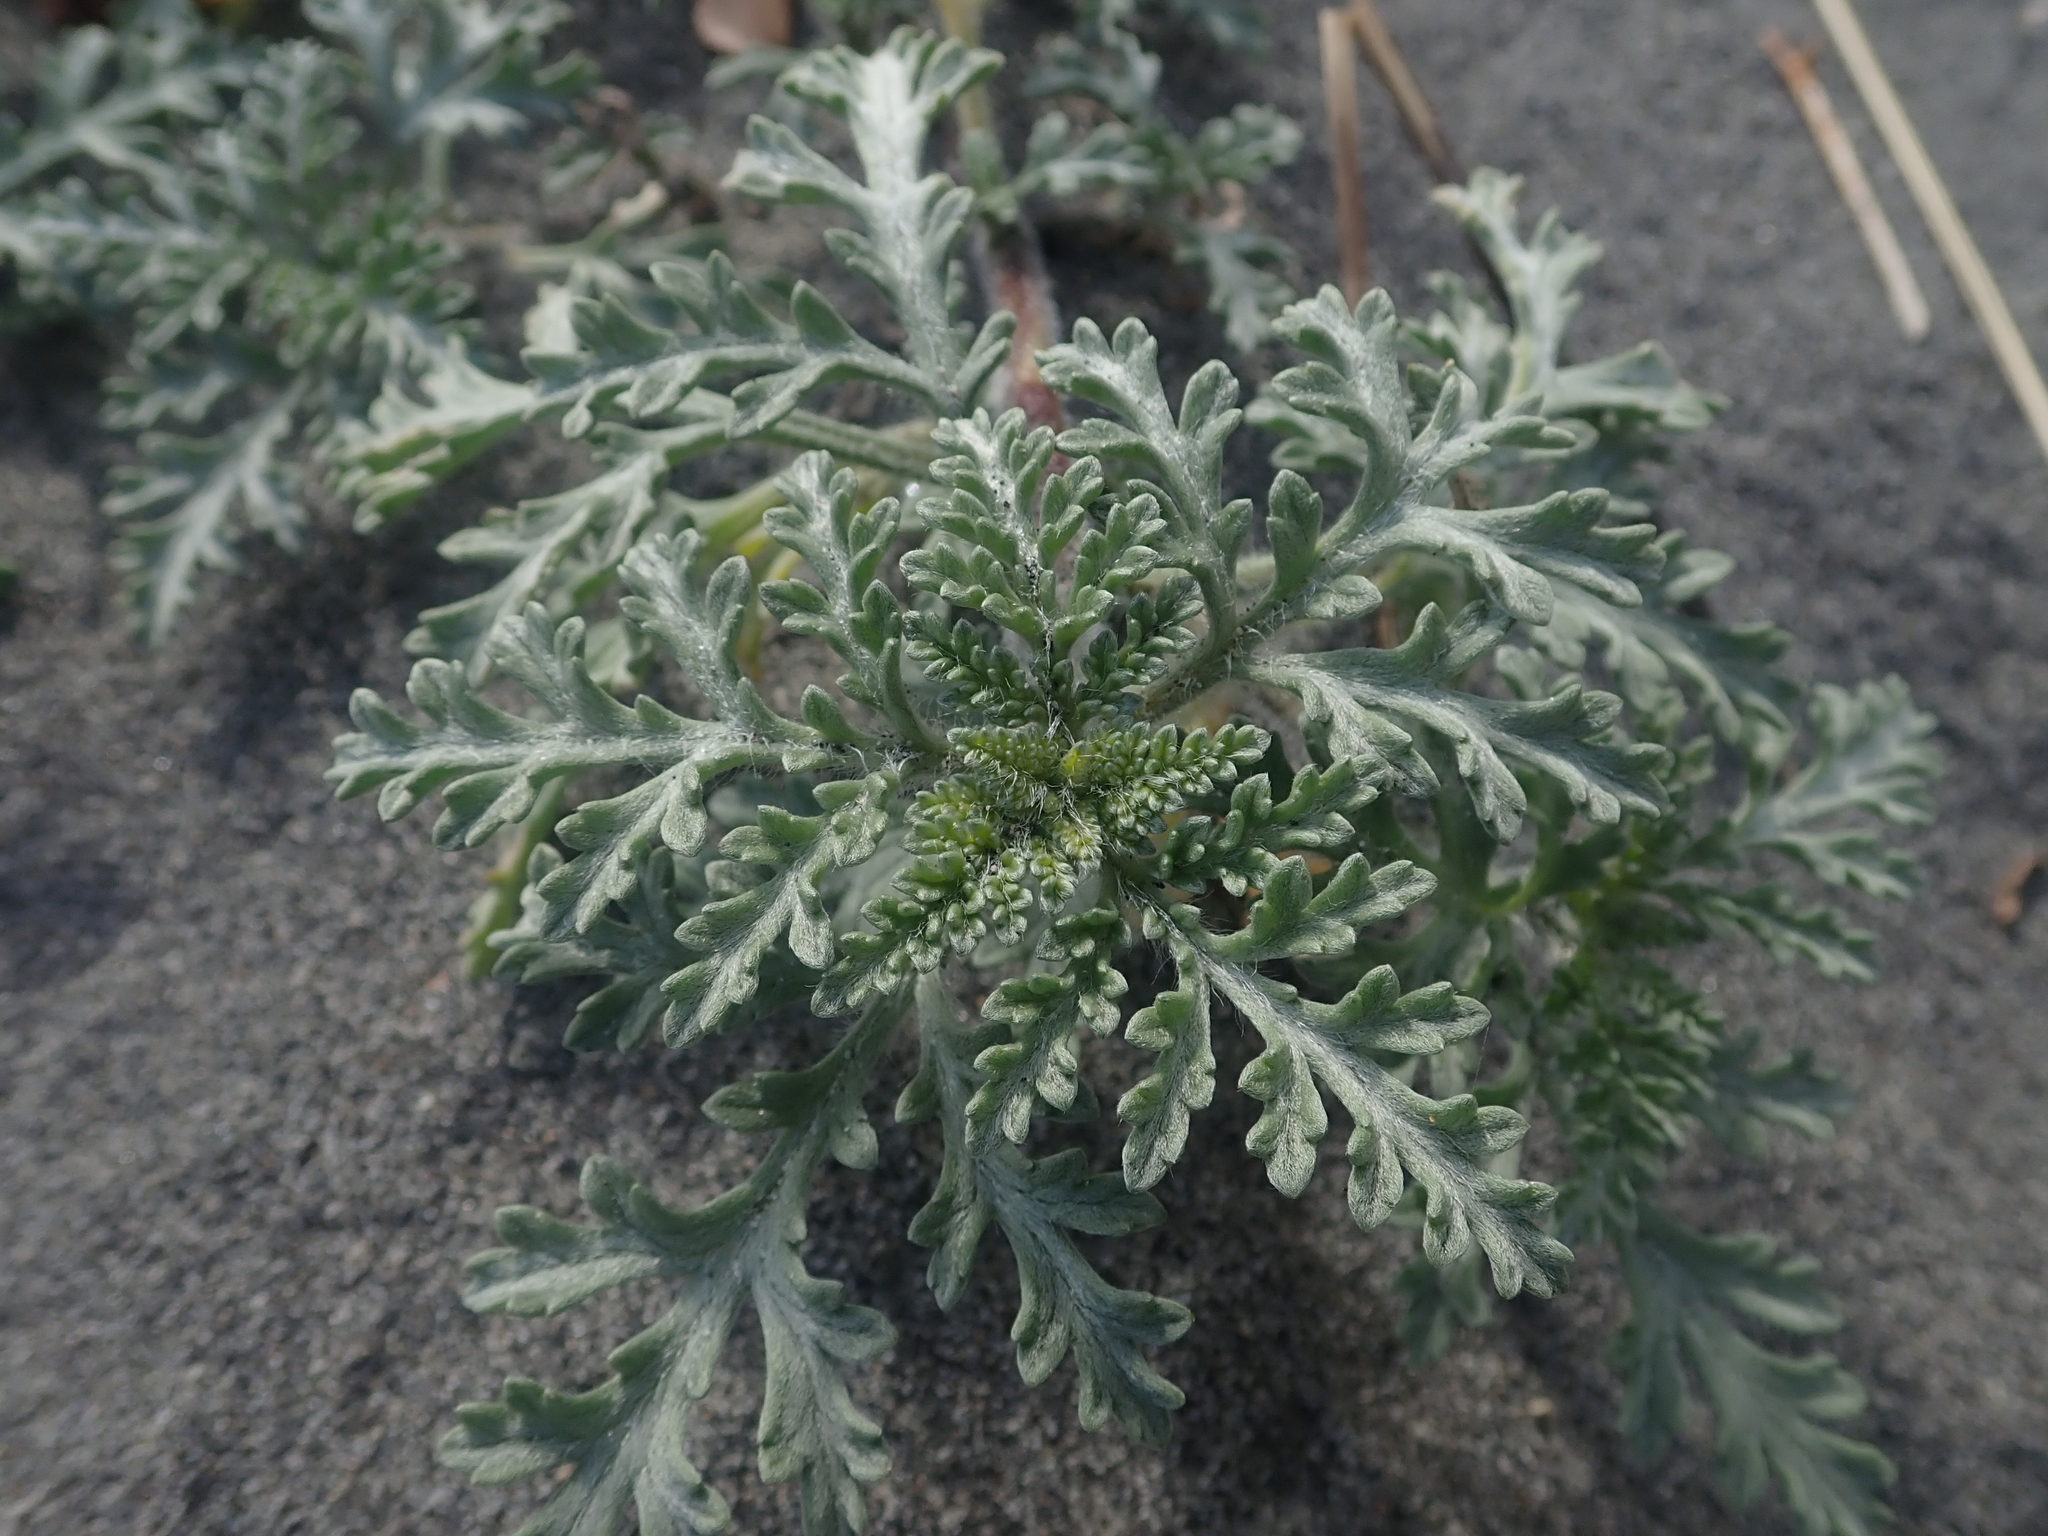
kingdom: Plantae
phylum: Tracheophyta
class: Magnoliopsida
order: Asterales
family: Asteraceae
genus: Ambrosia
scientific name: Ambrosia chamissonis
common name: Beachbur
